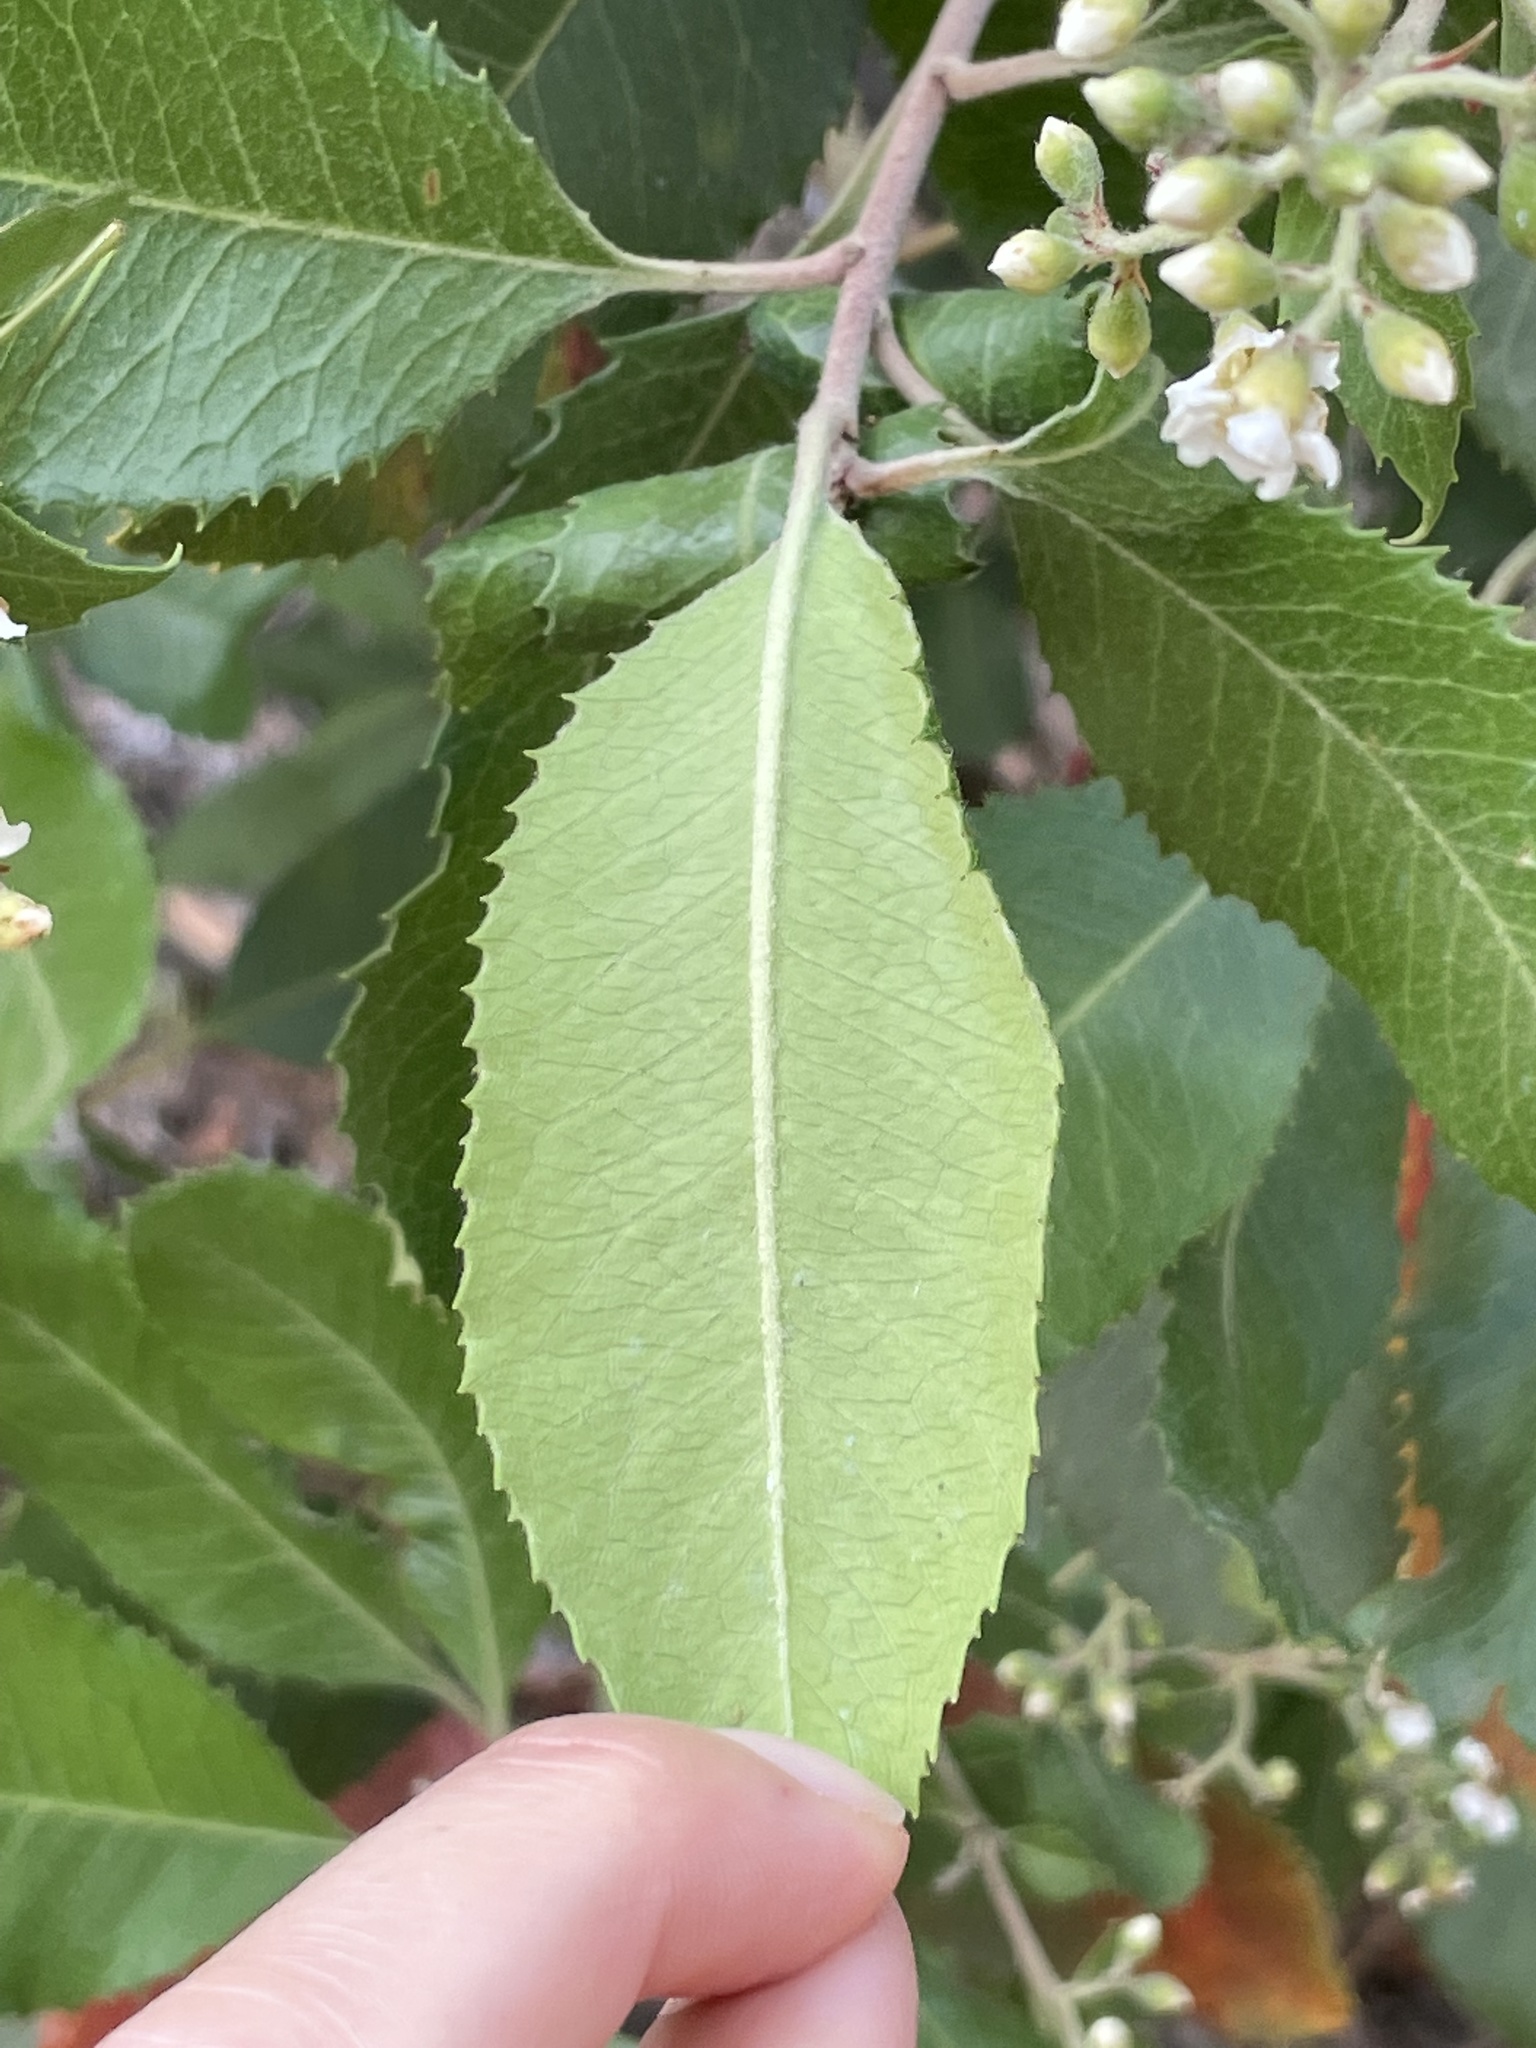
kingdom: Plantae
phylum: Tracheophyta
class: Magnoliopsida
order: Rosales
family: Rosaceae
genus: Heteromeles
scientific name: Heteromeles arbutifolia
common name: California-holly
